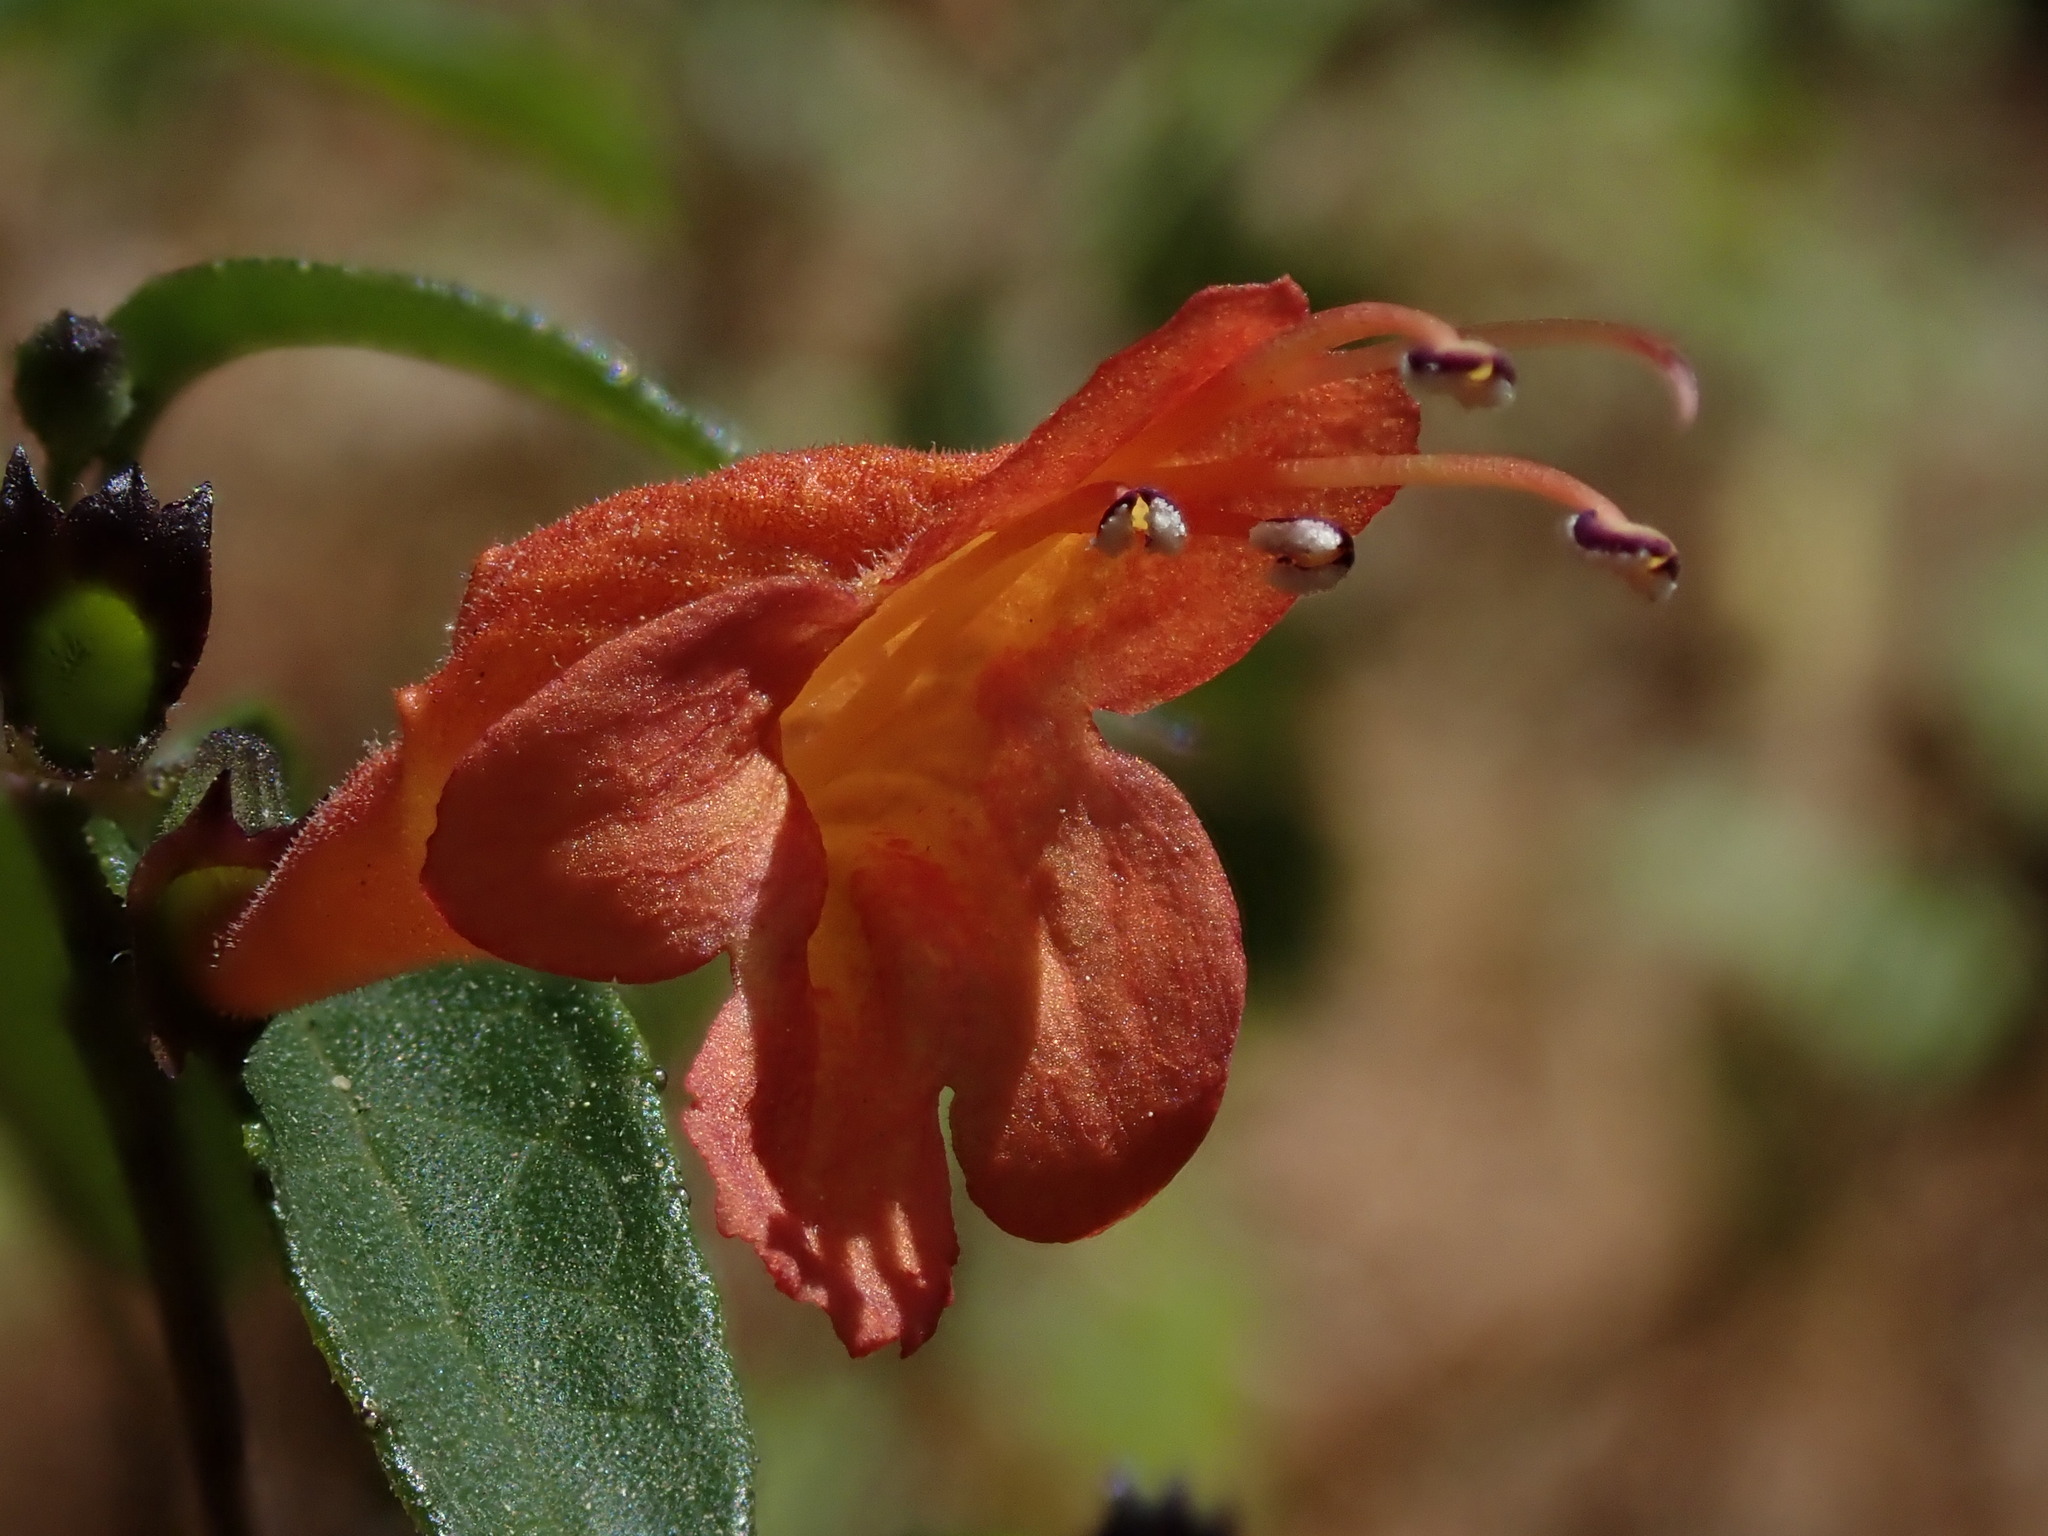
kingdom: Plantae
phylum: Tracheophyta
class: Magnoliopsida
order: Lamiales
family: Lamiaceae
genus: Clinopodium
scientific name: Clinopodium macrostemum
